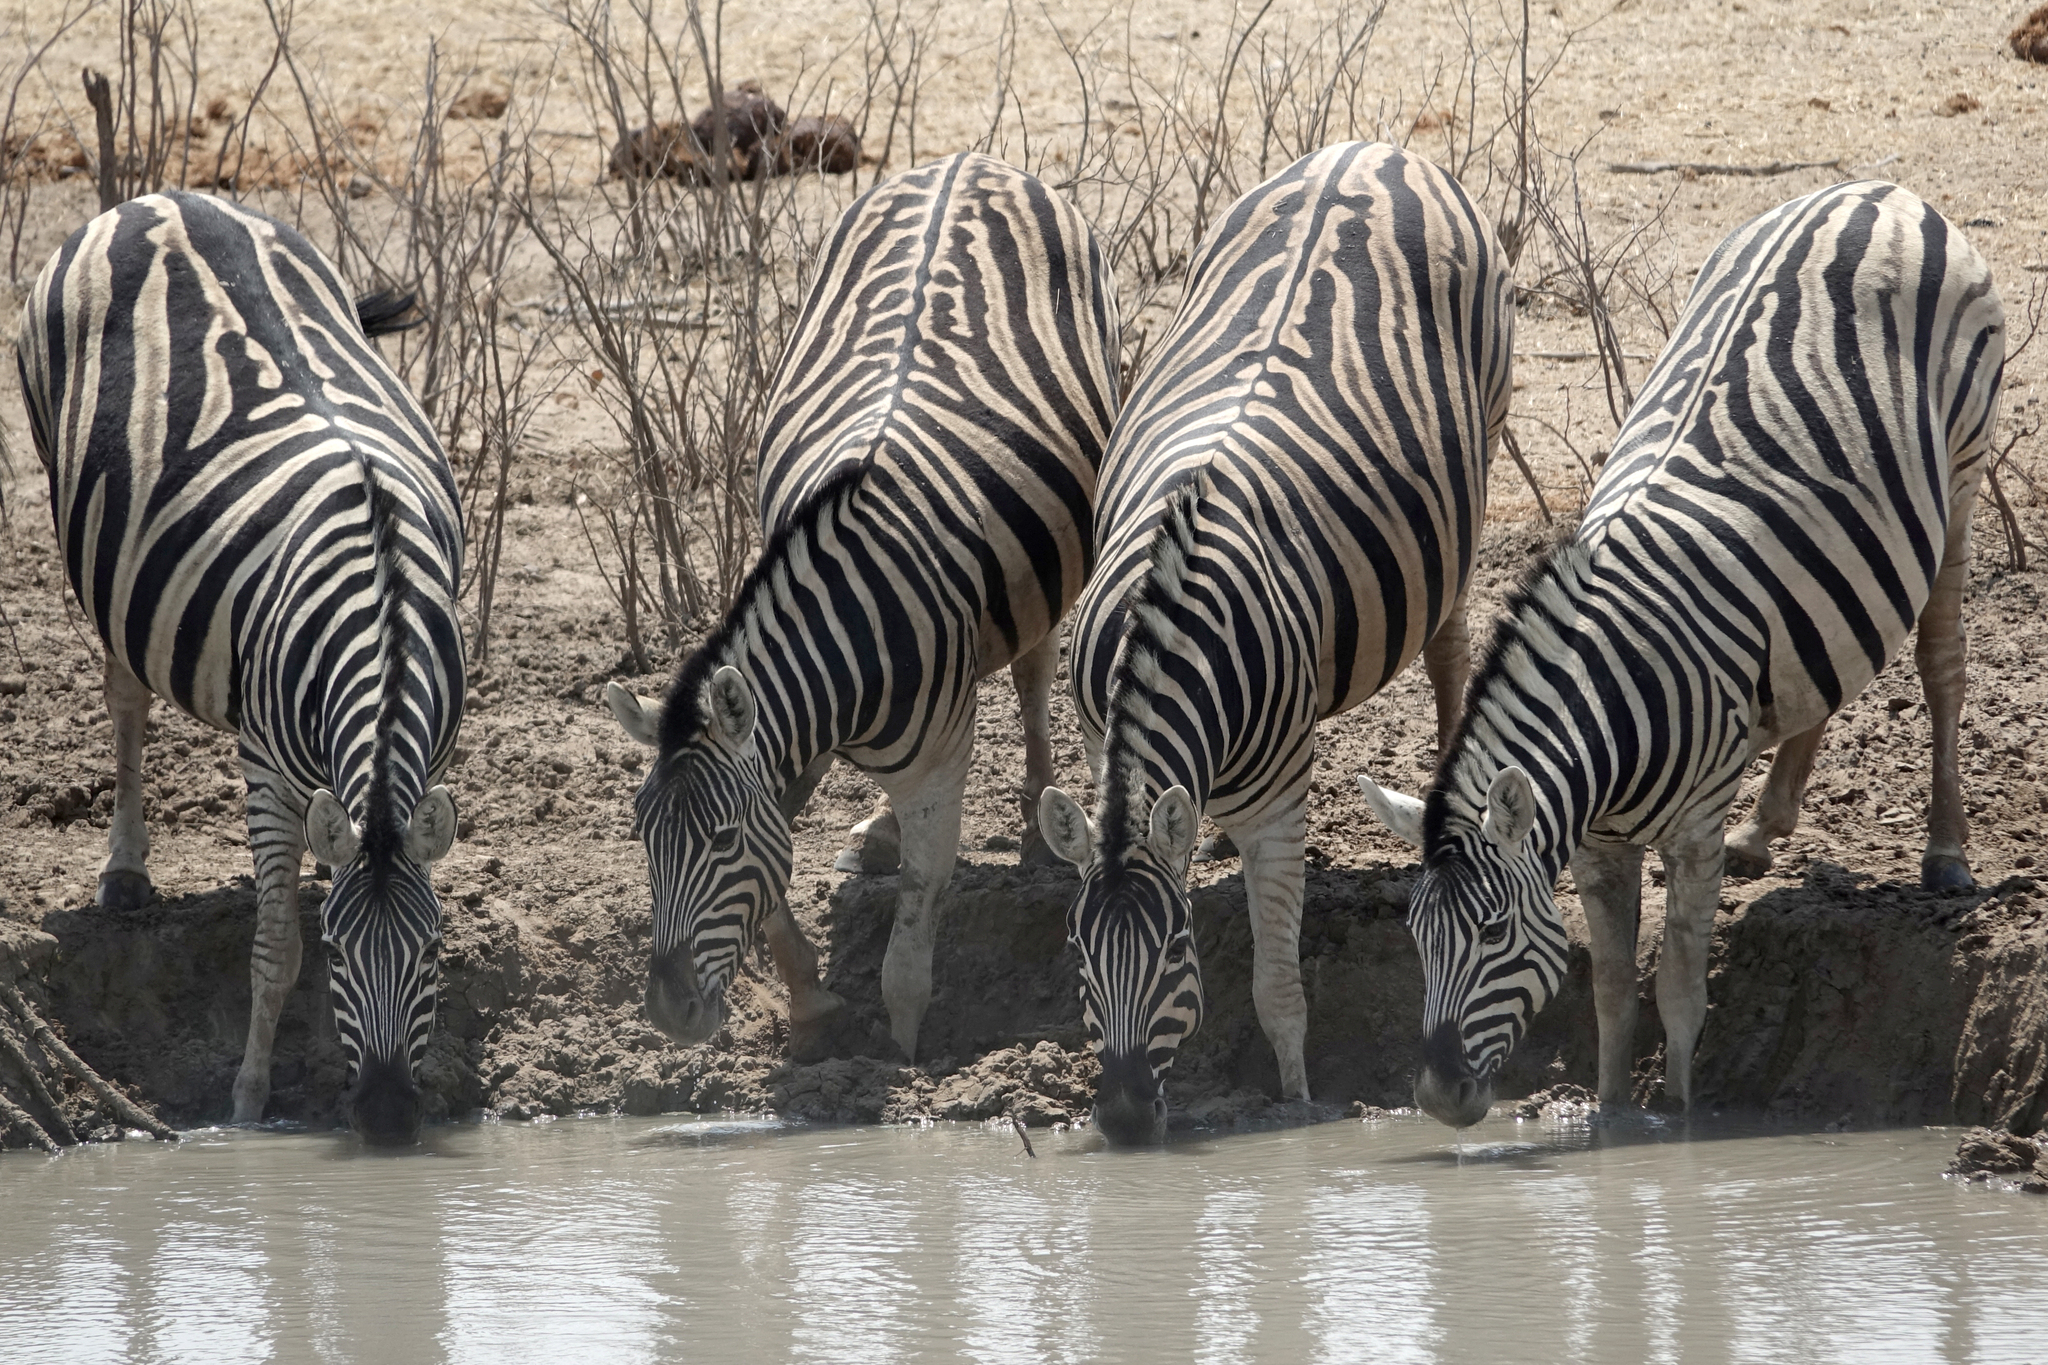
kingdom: Animalia
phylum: Chordata
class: Mammalia
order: Perissodactyla
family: Equidae
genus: Equus
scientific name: Equus quagga
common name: Plains zebra
